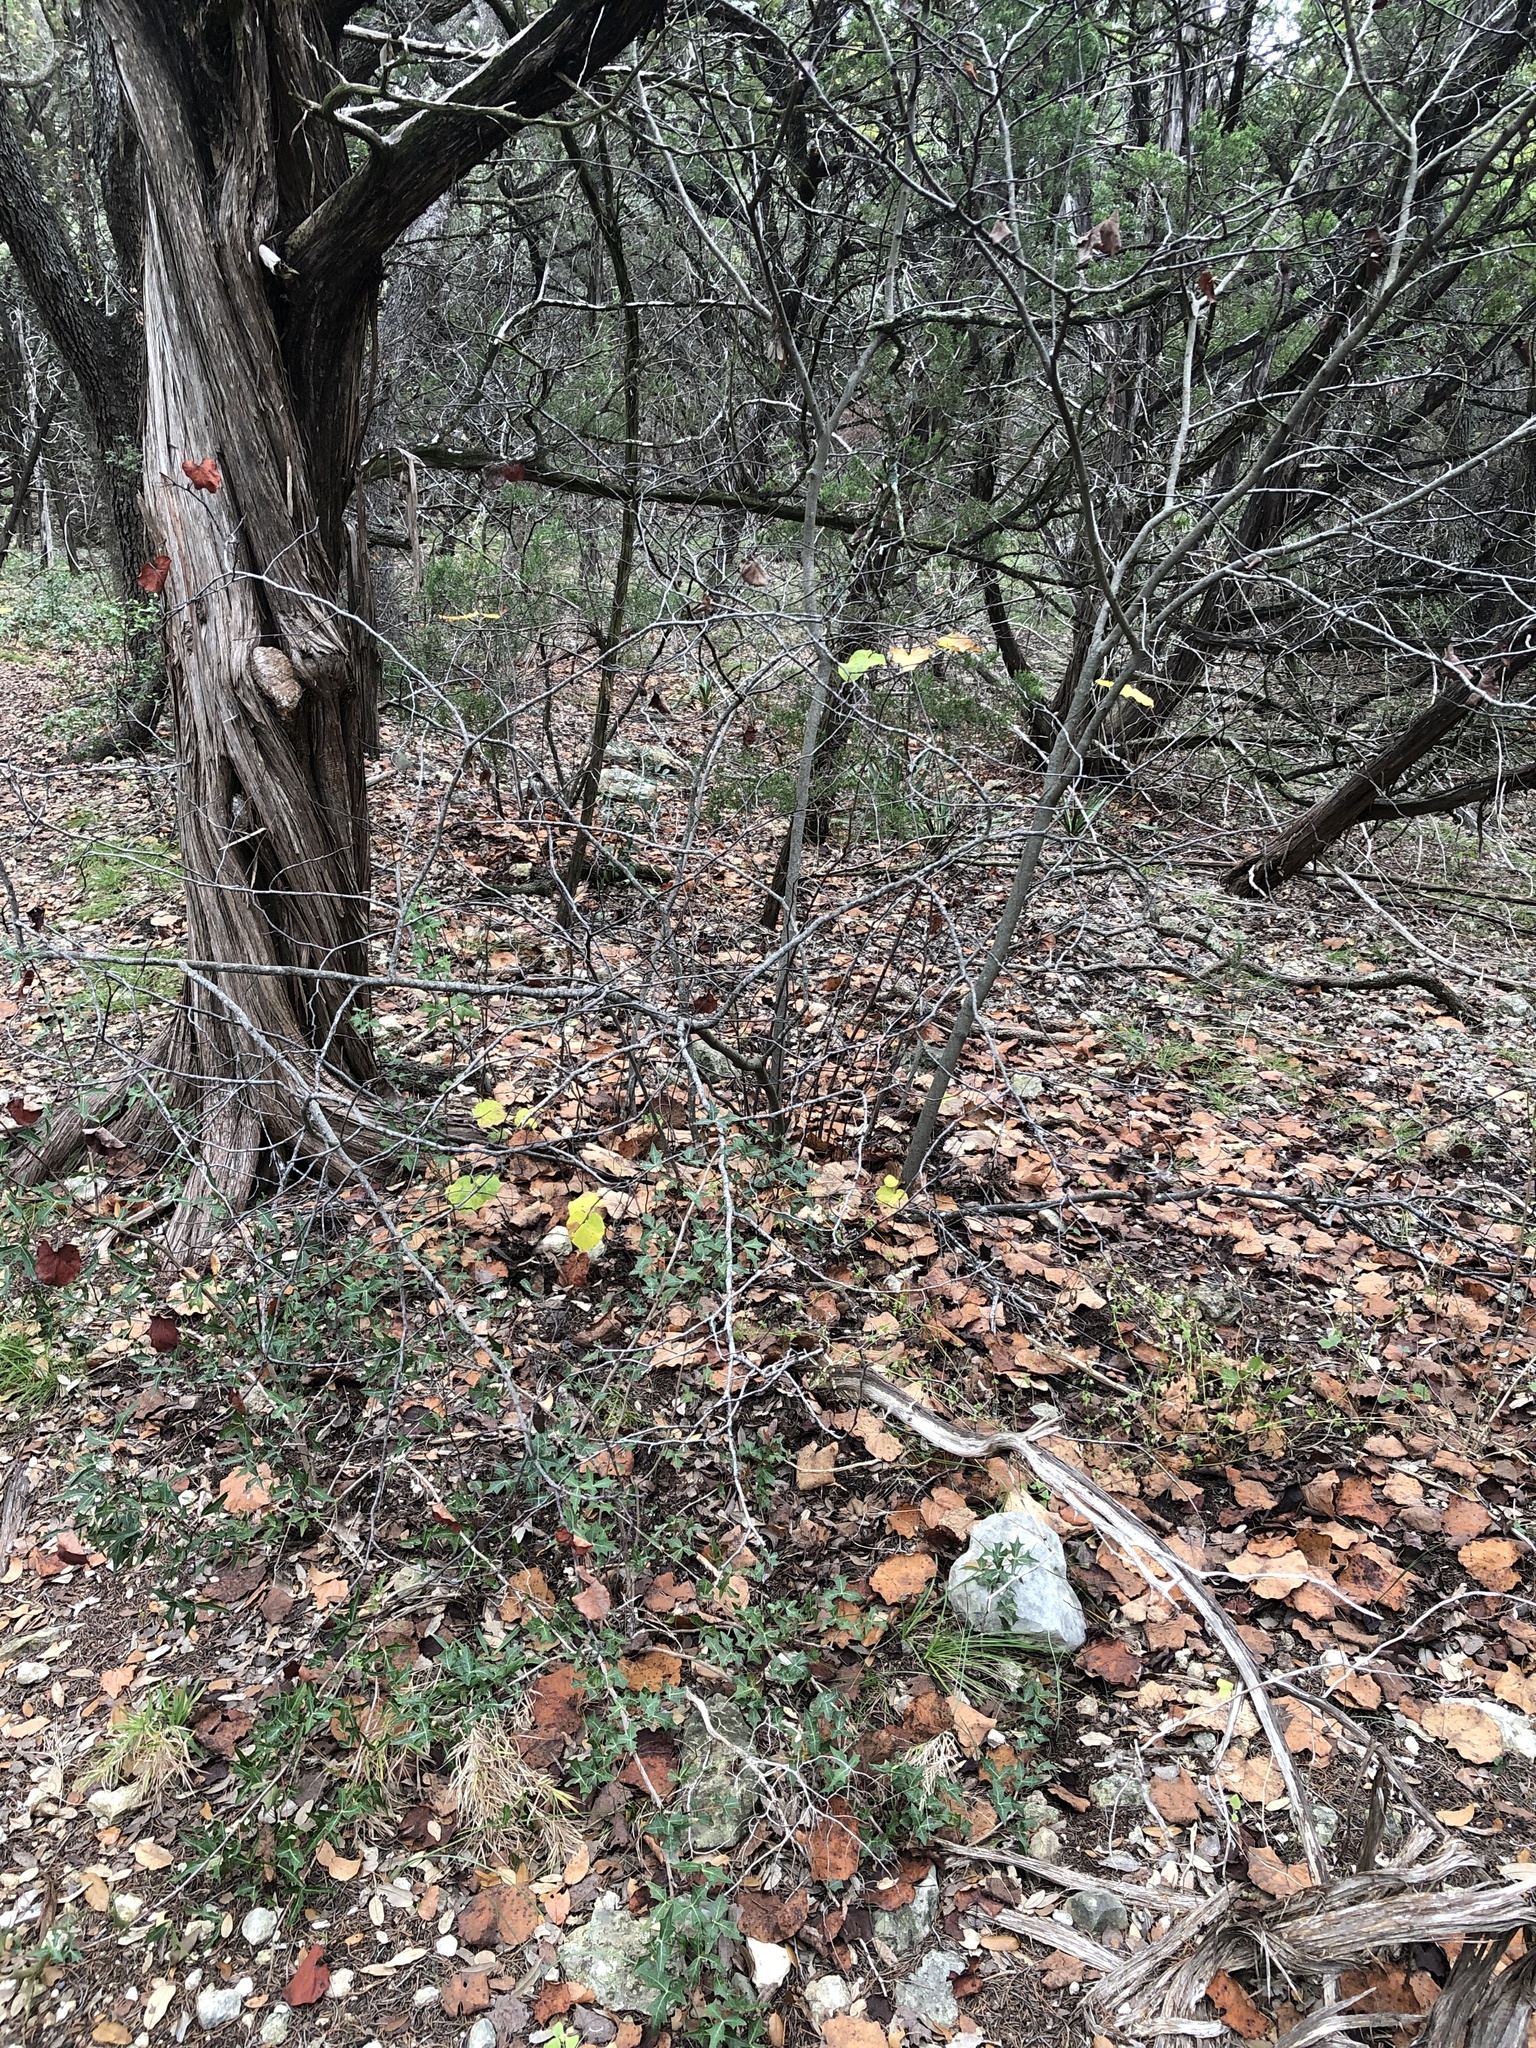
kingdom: Plantae
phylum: Tracheophyta
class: Magnoliopsida
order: Fabales
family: Fabaceae
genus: Cercis
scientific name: Cercis canadensis
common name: Eastern redbud
